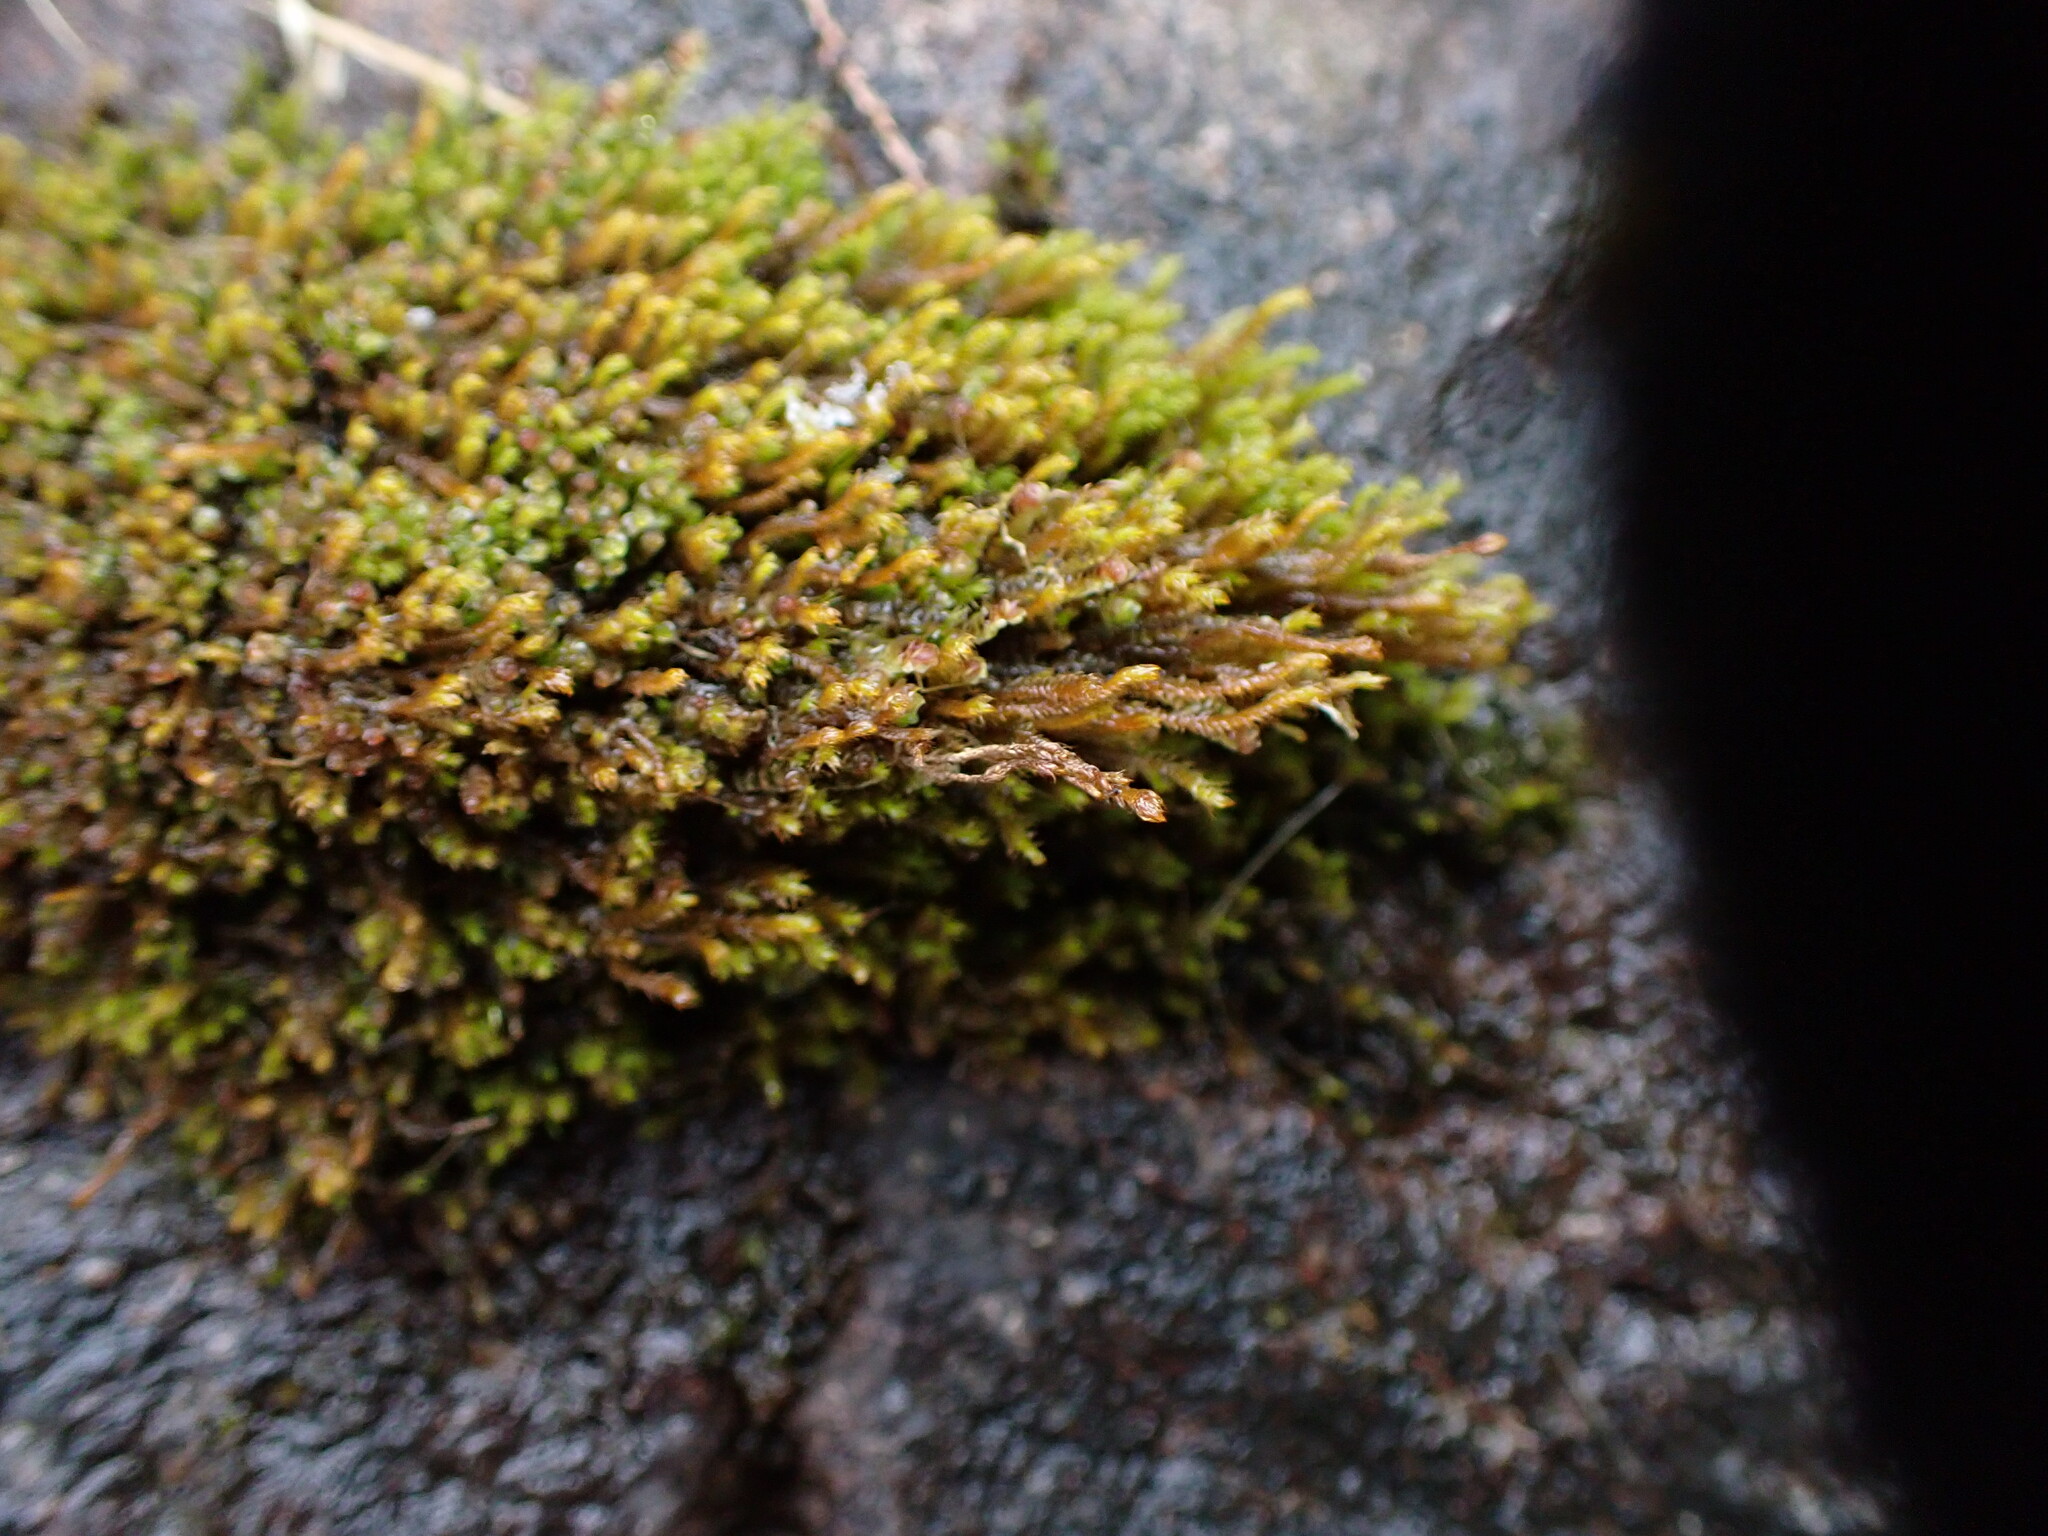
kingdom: Plantae
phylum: Marchantiophyta
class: Jungermanniopsida
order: Jungermanniales
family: Herbertaceae
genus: Herbertus
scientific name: Herbertus aduncus
